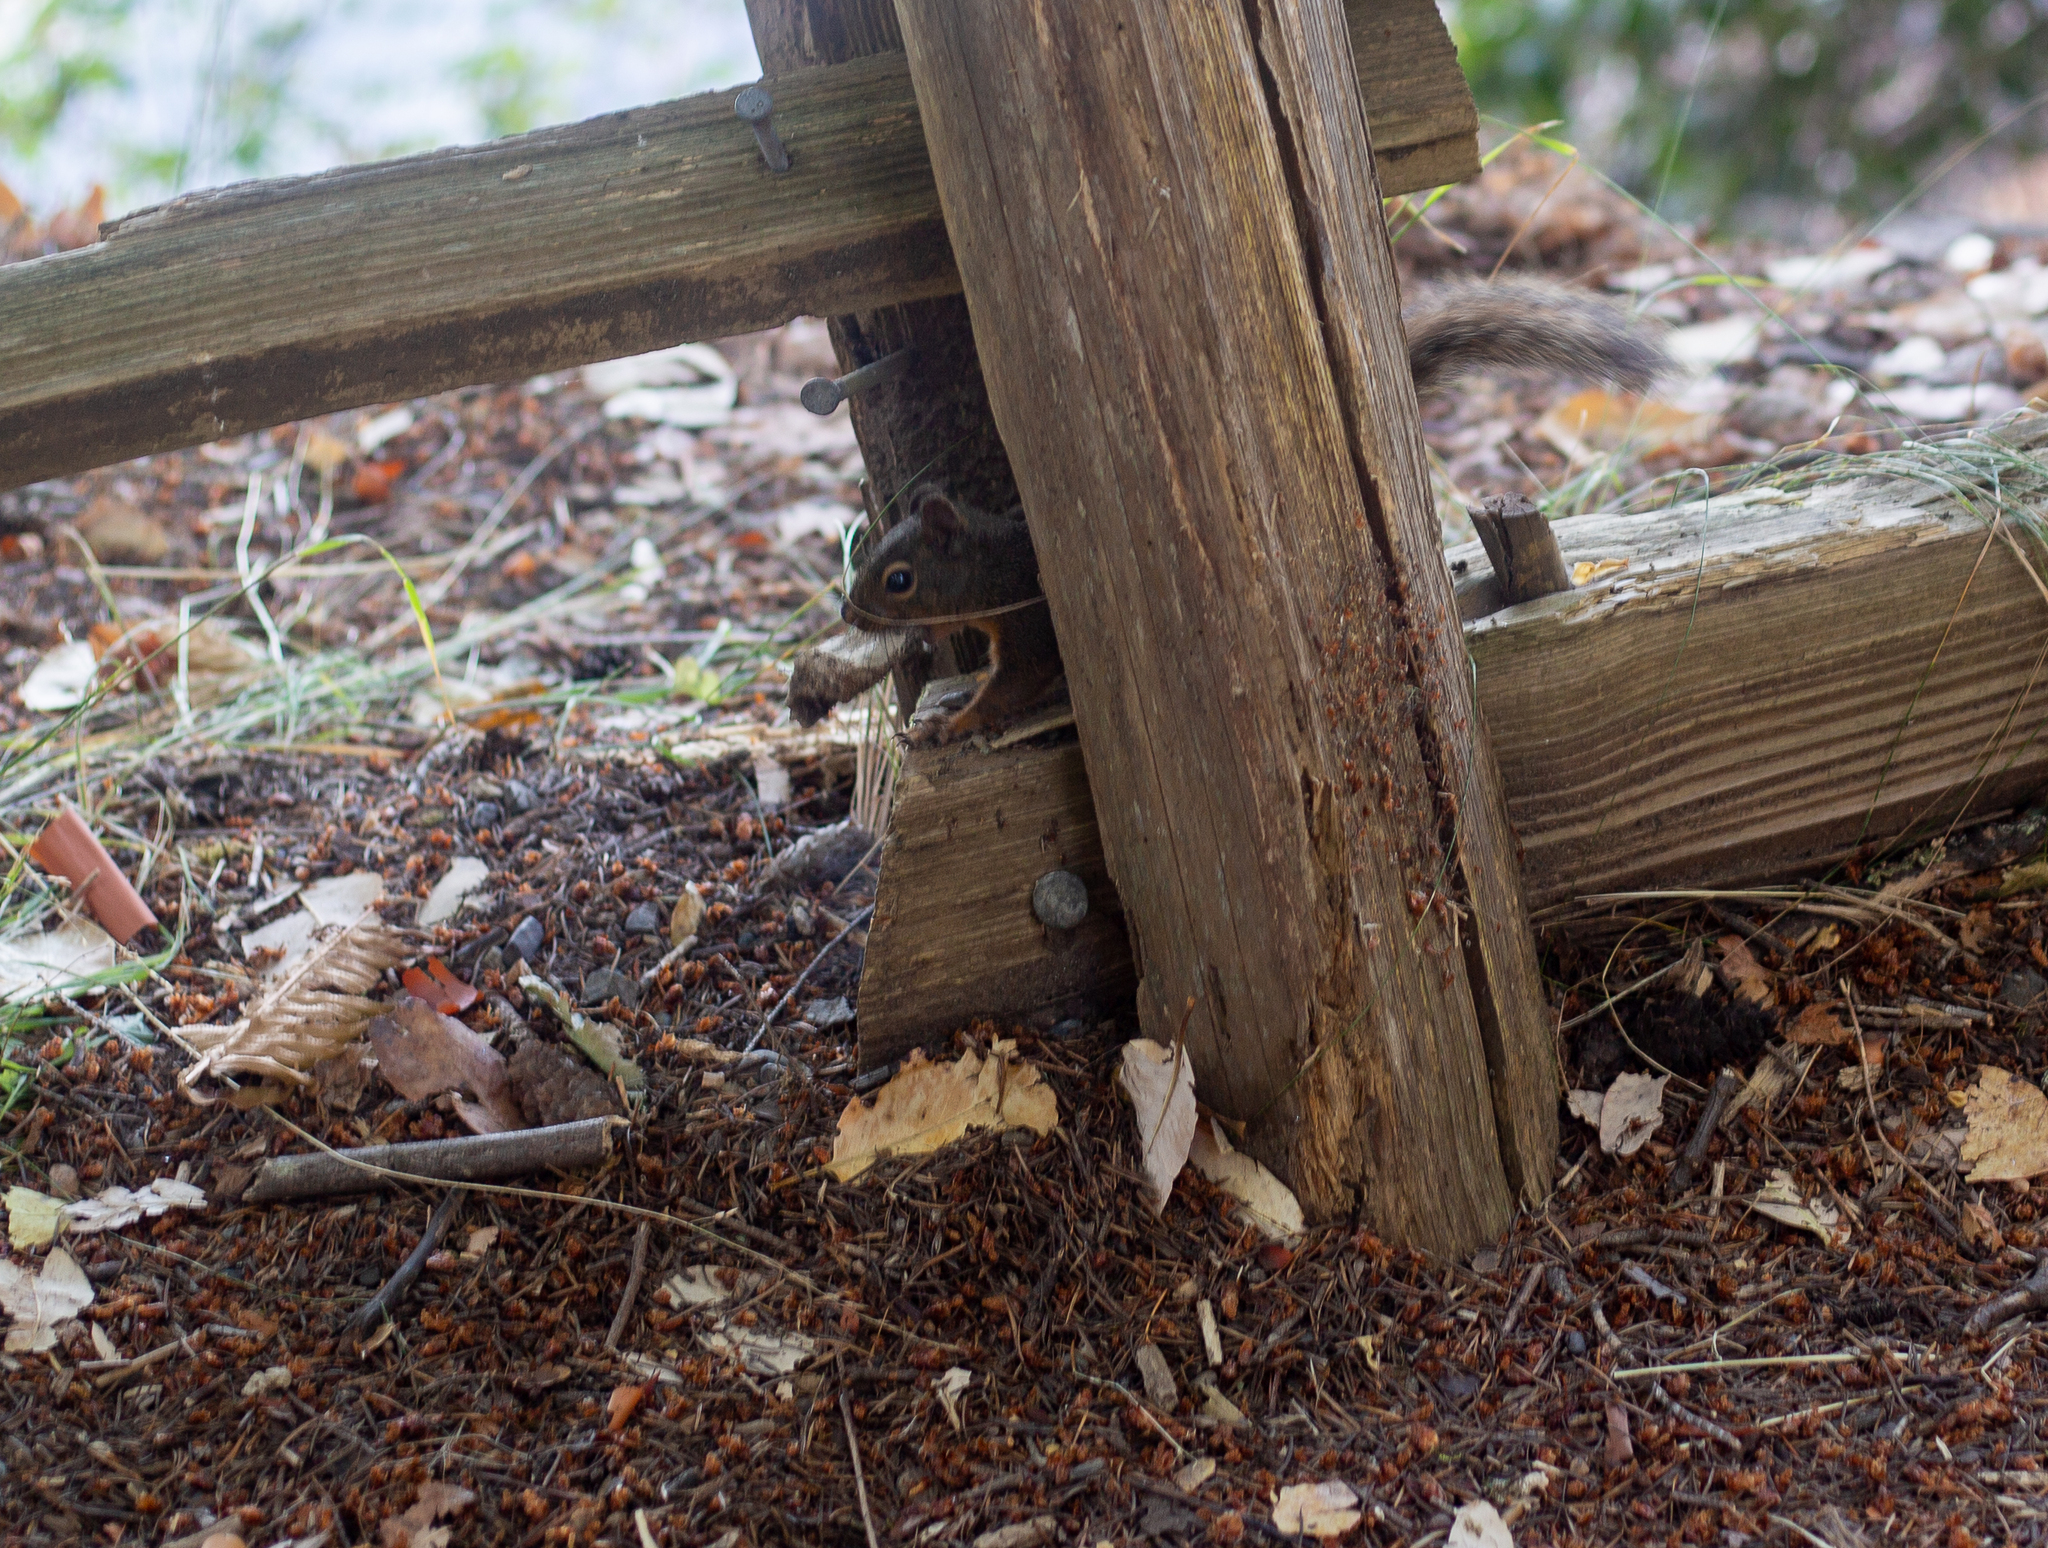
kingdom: Animalia
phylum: Chordata
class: Mammalia
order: Rodentia
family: Sciuridae
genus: Tamiasciurus
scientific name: Tamiasciurus douglasii
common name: Douglas's squirrel
